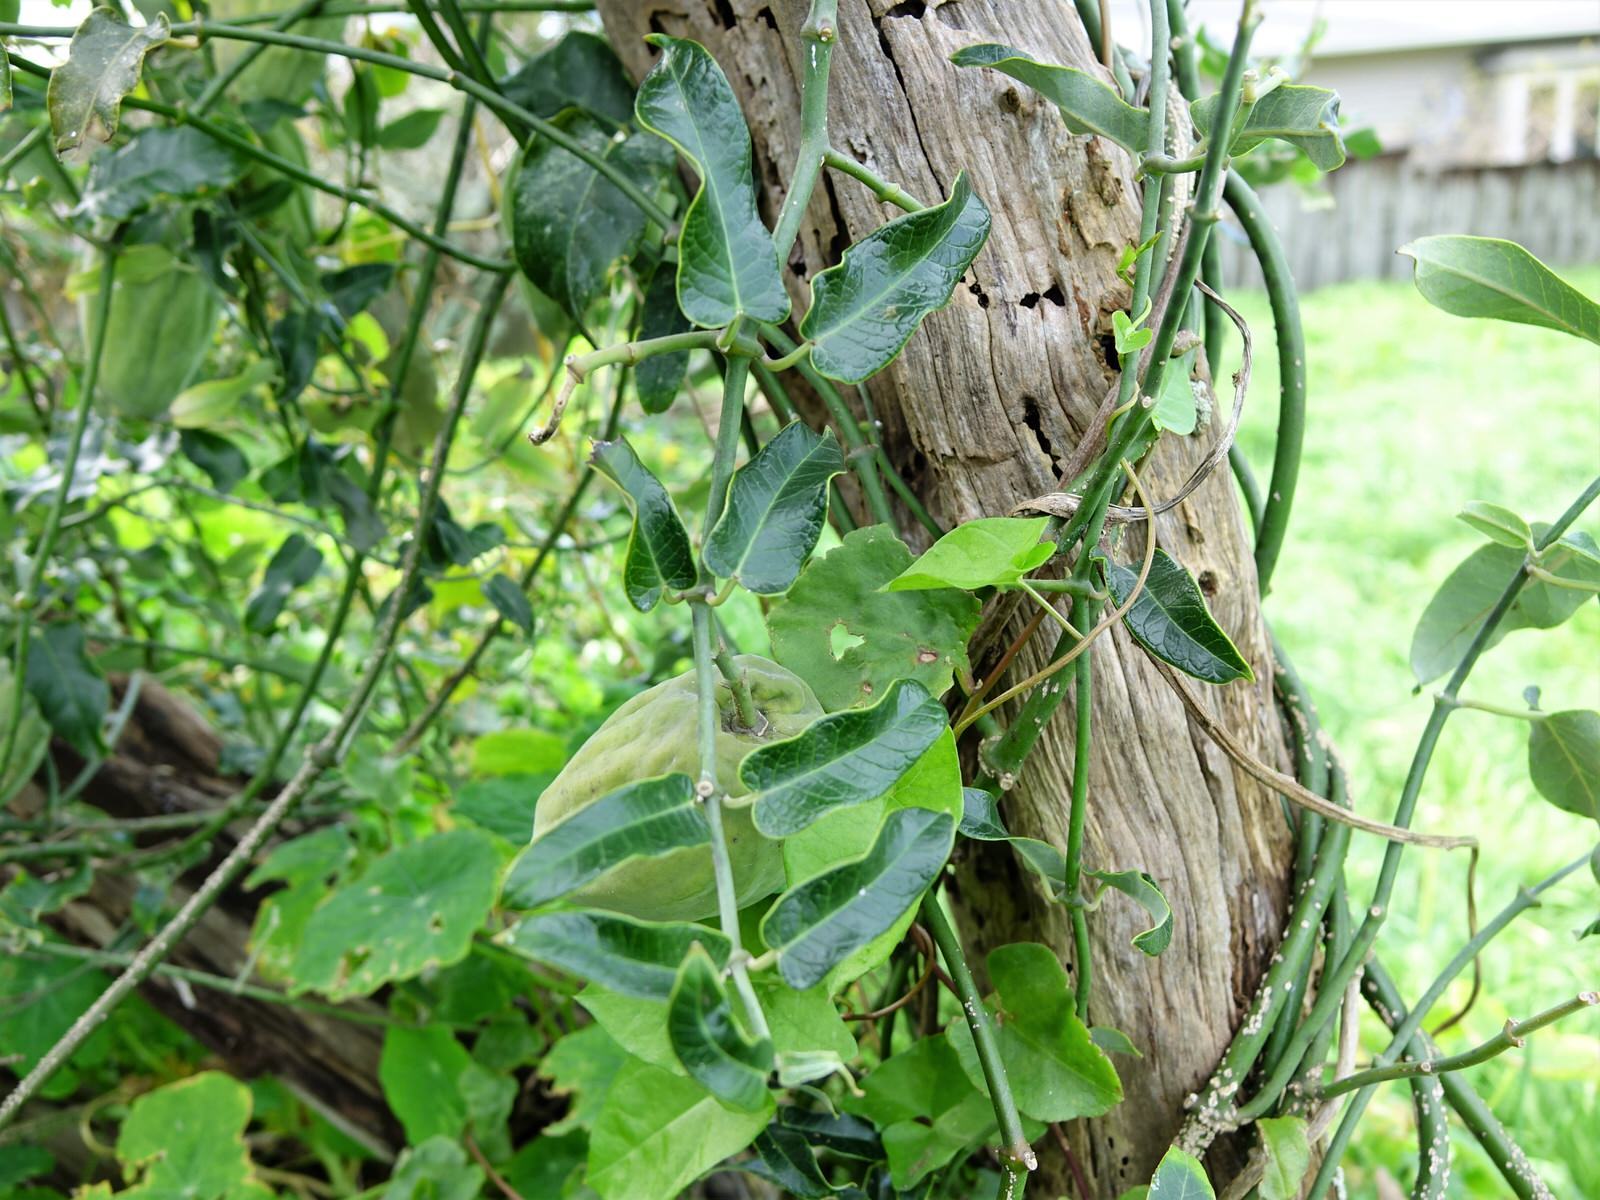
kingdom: Plantae
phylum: Tracheophyta
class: Magnoliopsida
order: Gentianales
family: Apocynaceae
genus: Araujia
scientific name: Araujia sericifera
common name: White bladderflower
